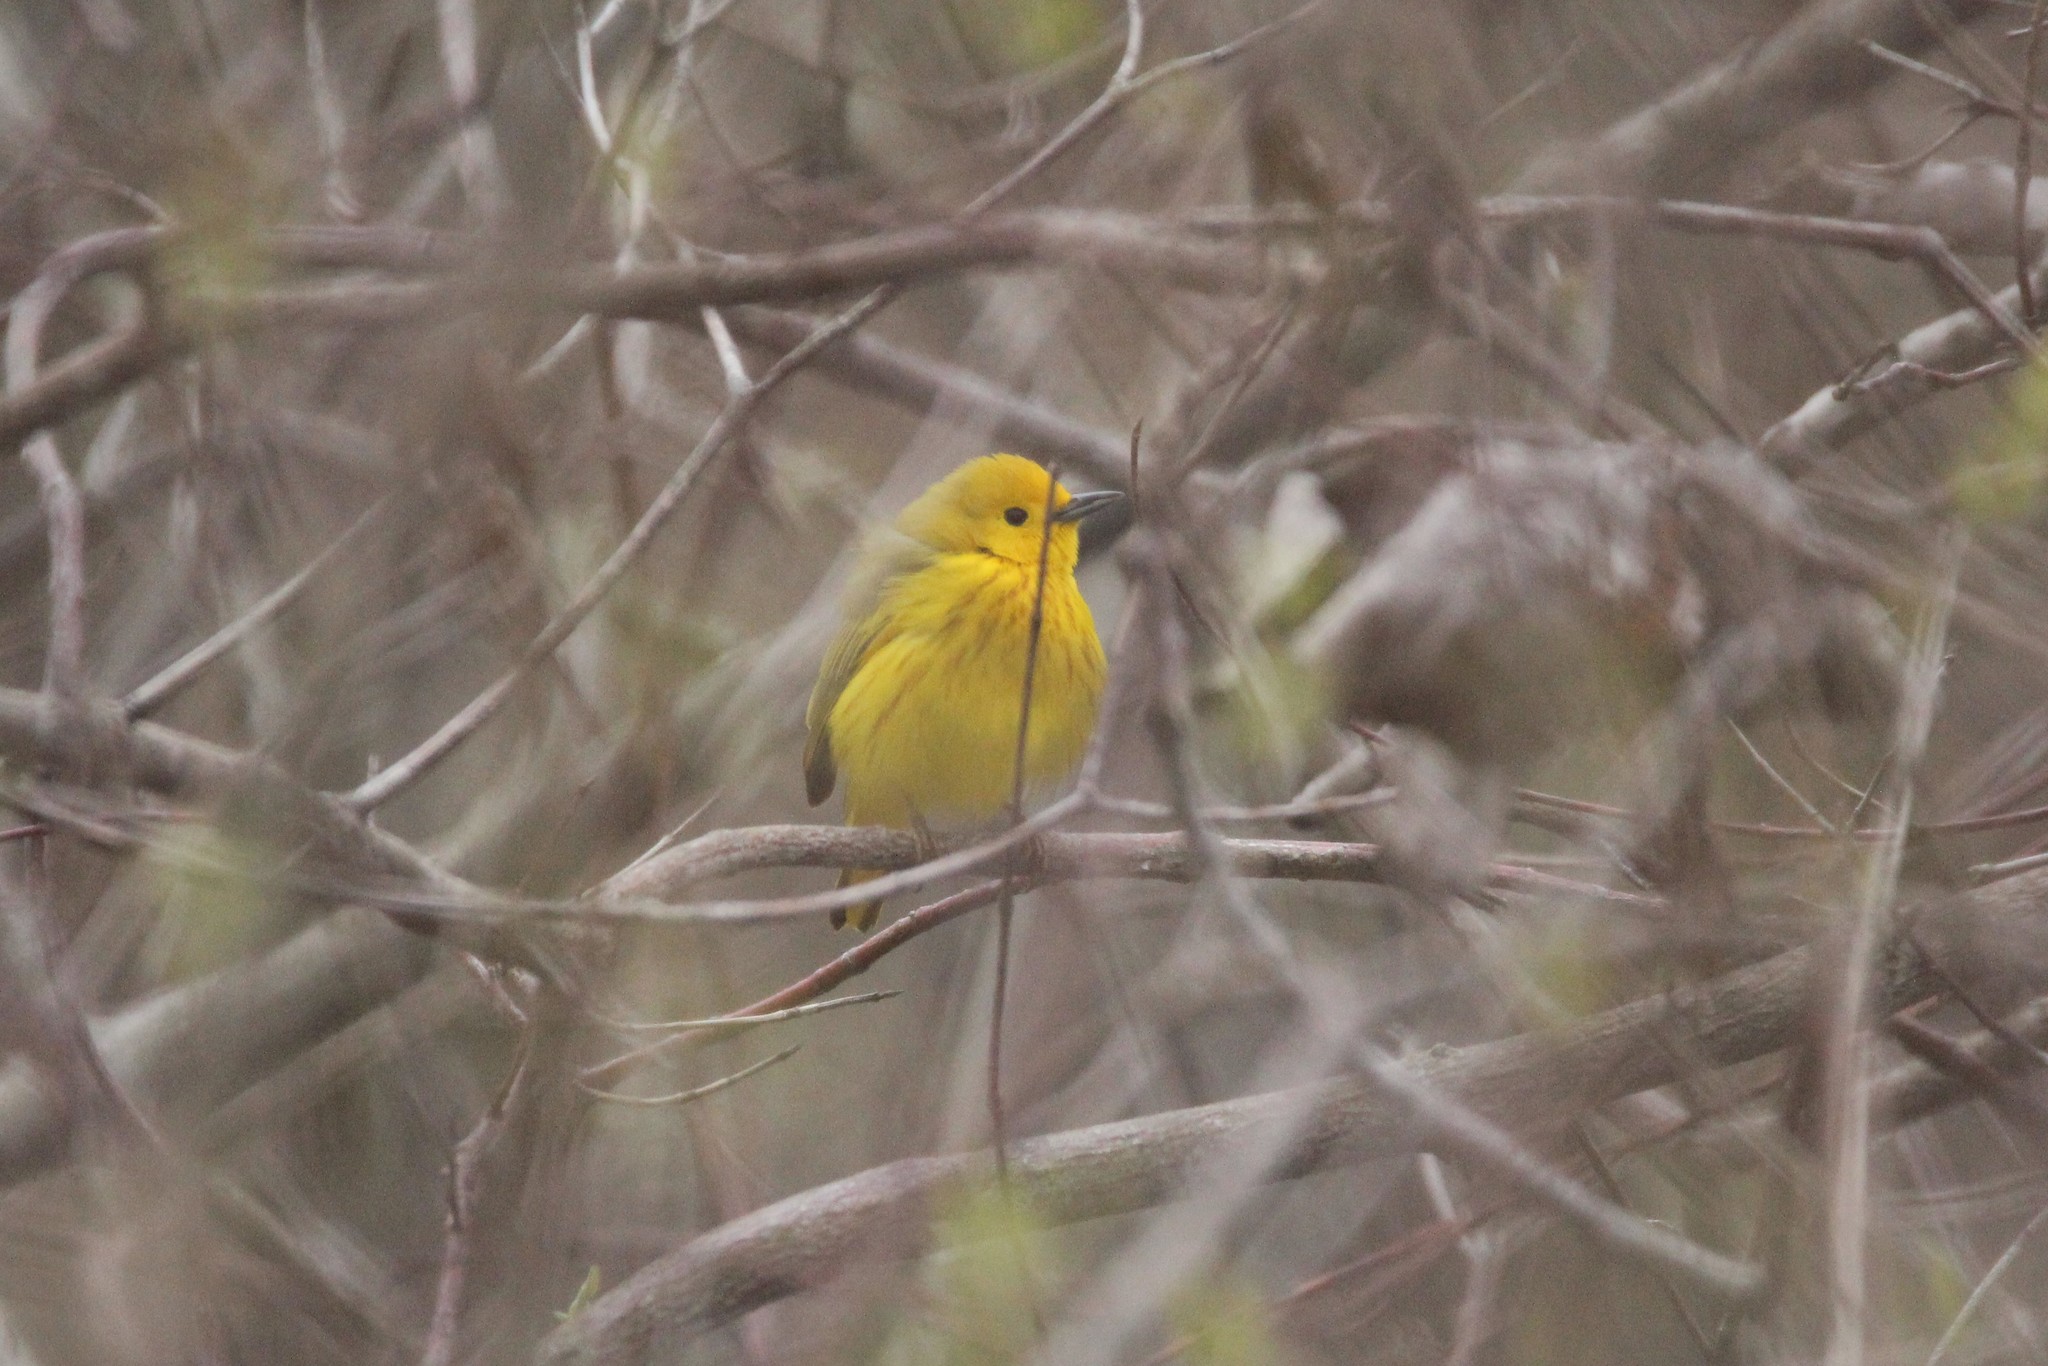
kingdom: Animalia
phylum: Chordata
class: Aves
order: Passeriformes
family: Parulidae
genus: Setophaga
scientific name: Setophaga petechia
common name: Yellow warbler
